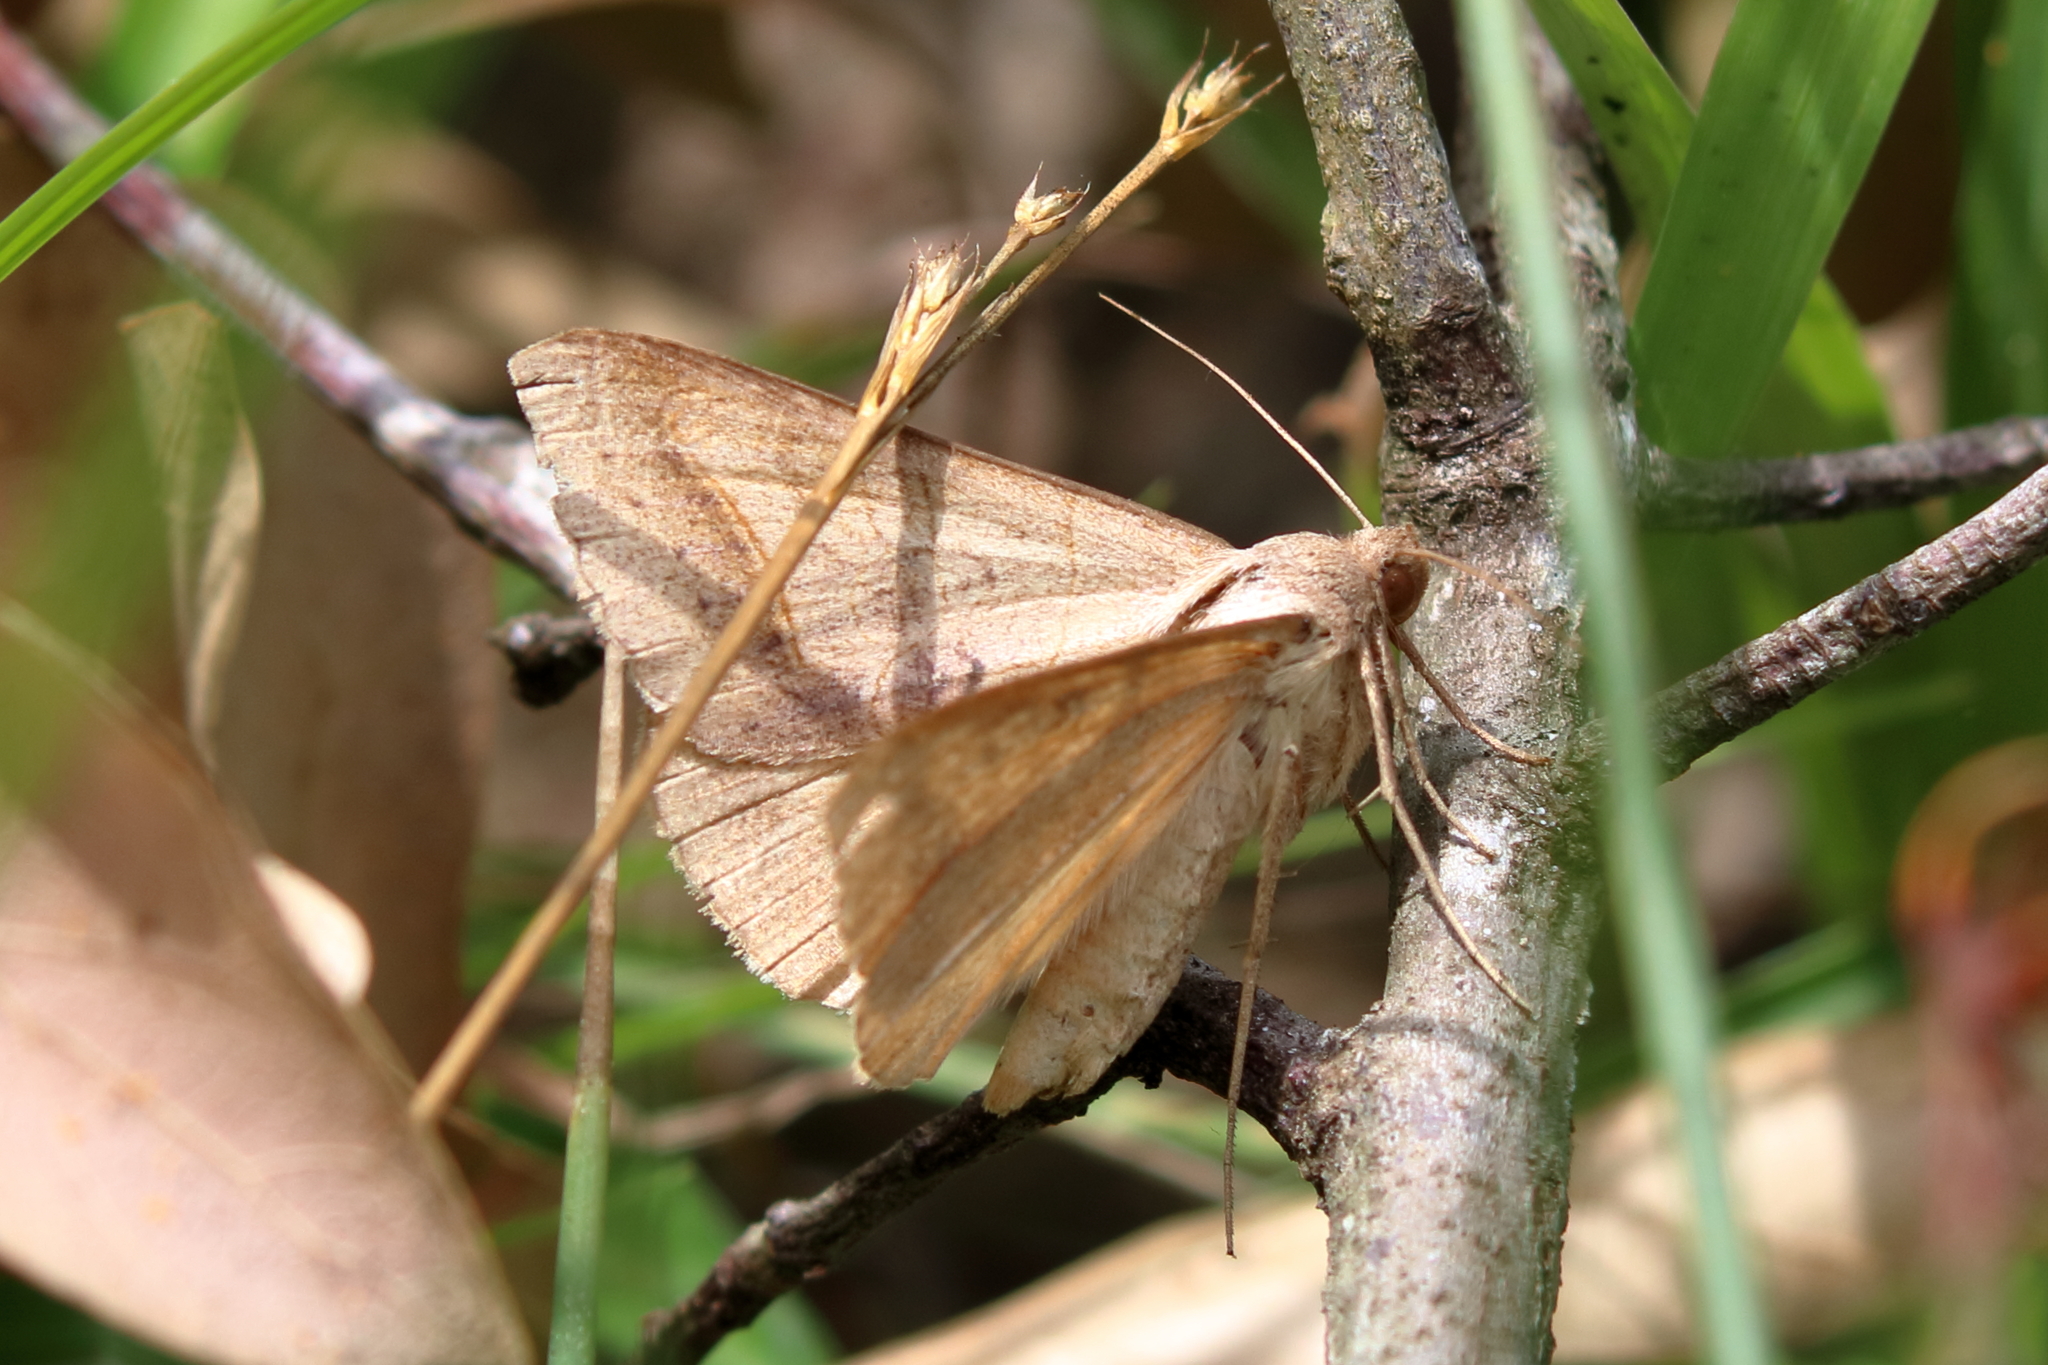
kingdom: Animalia
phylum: Arthropoda
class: Insecta
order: Lepidoptera
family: Erebidae
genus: Mocis
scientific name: Mocis marcida
